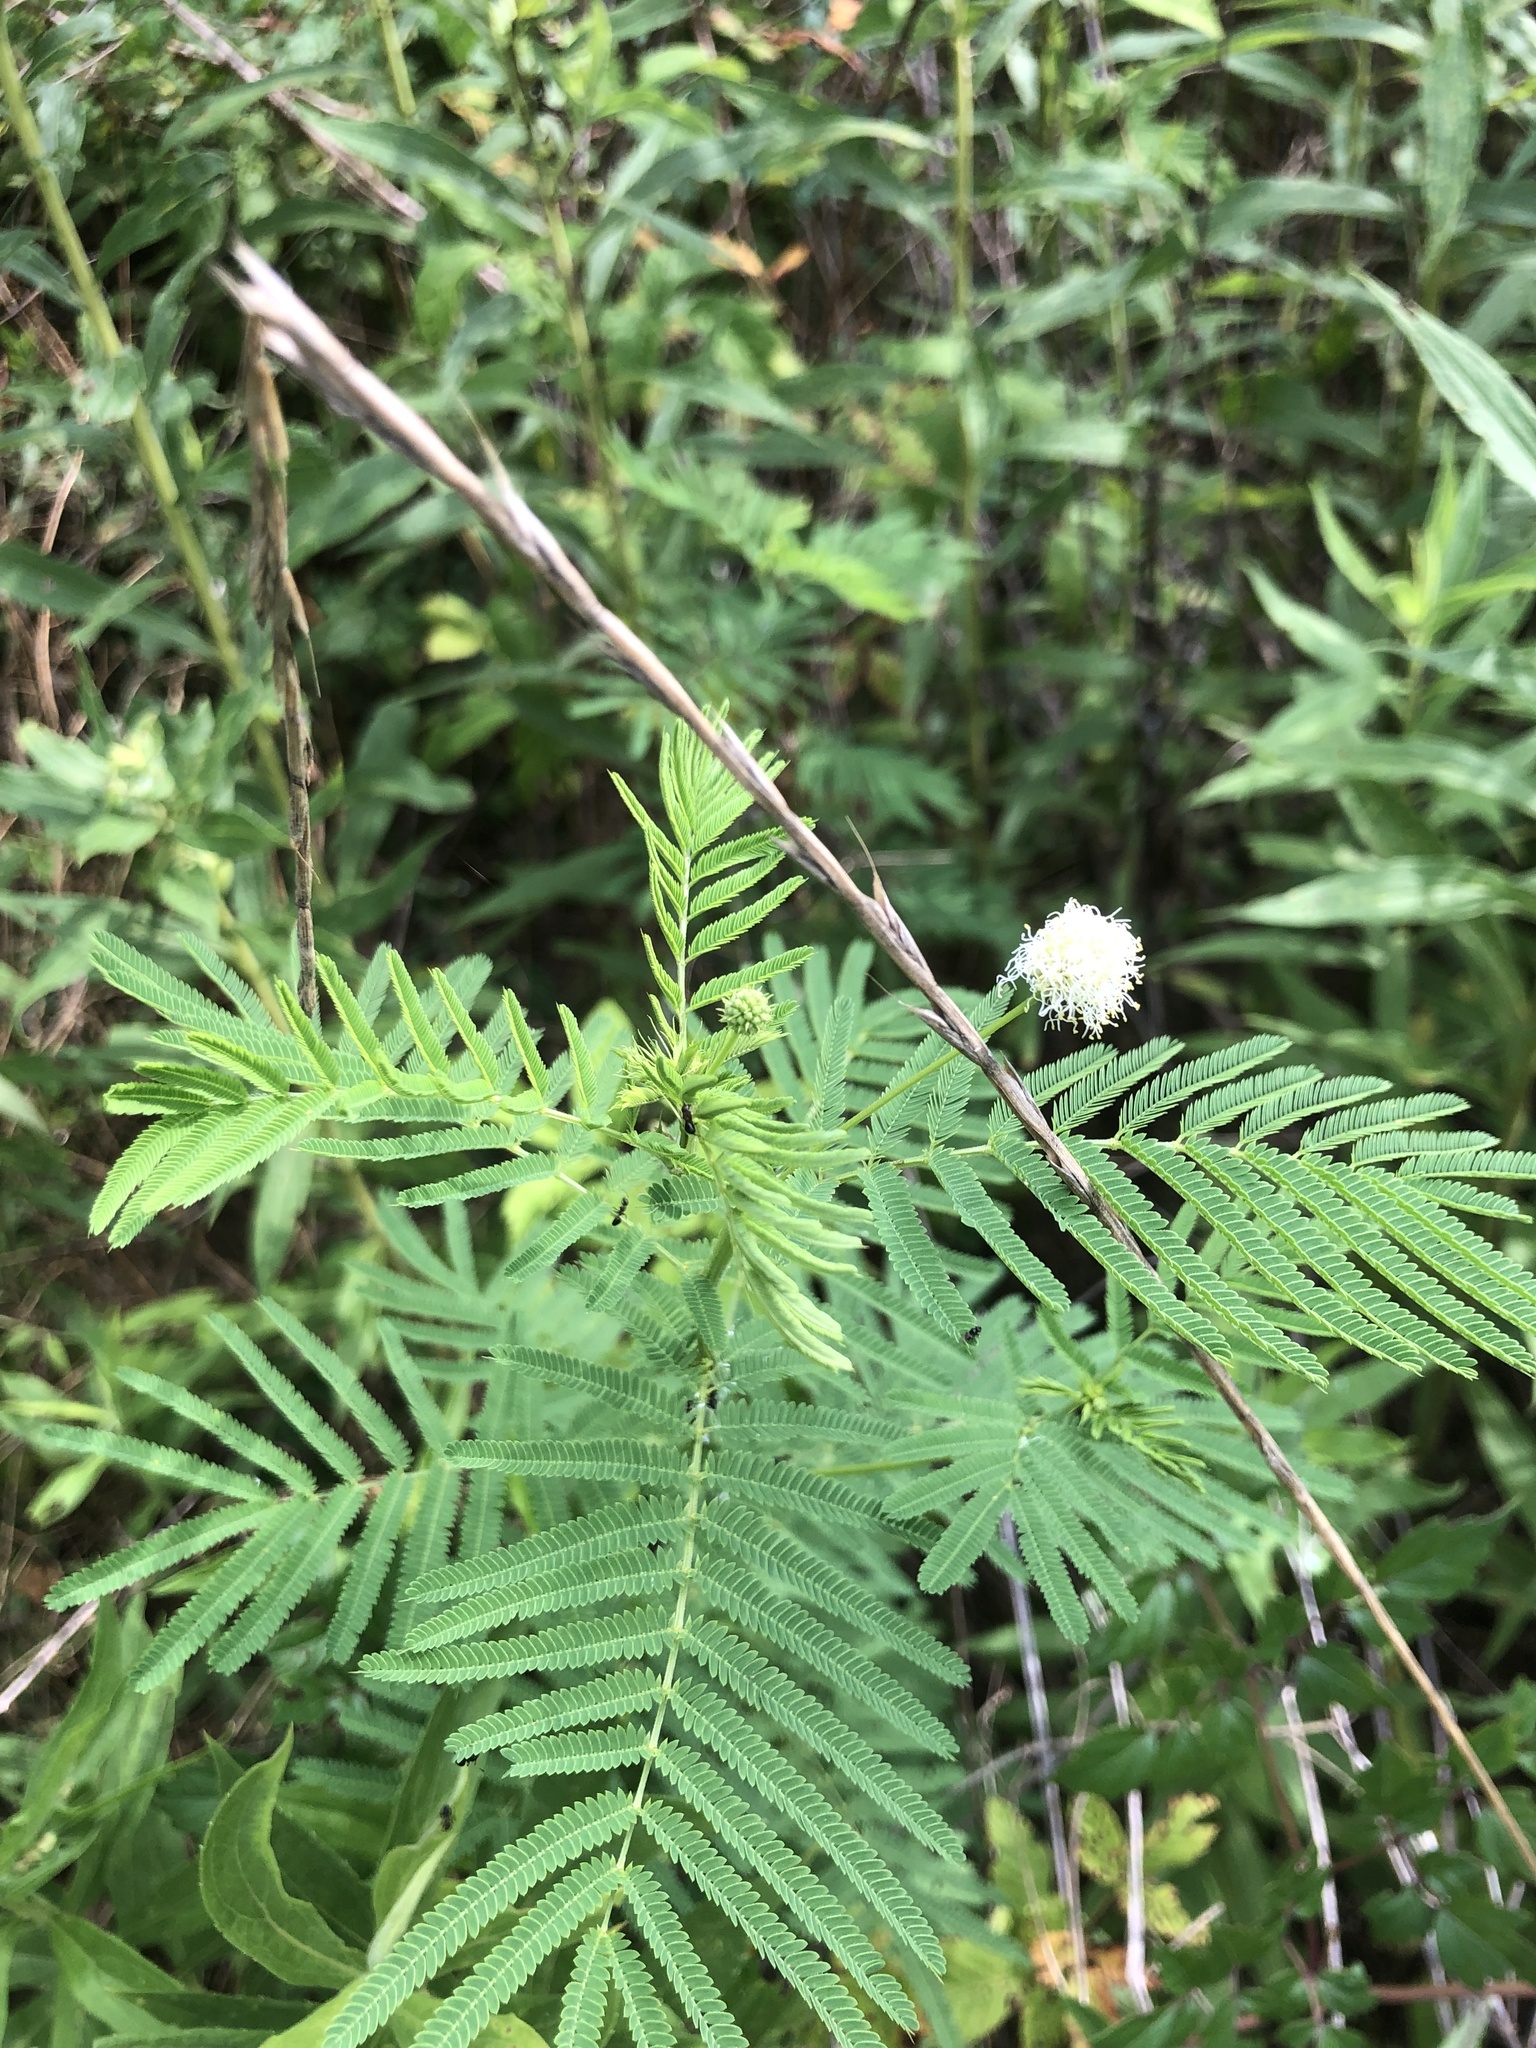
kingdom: Plantae
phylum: Tracheophyta
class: Magnoliopsida
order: Fabales
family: Fabaceae
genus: Desmanthus
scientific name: Desmanthus illinoensis
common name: Illinois bundle-flower
